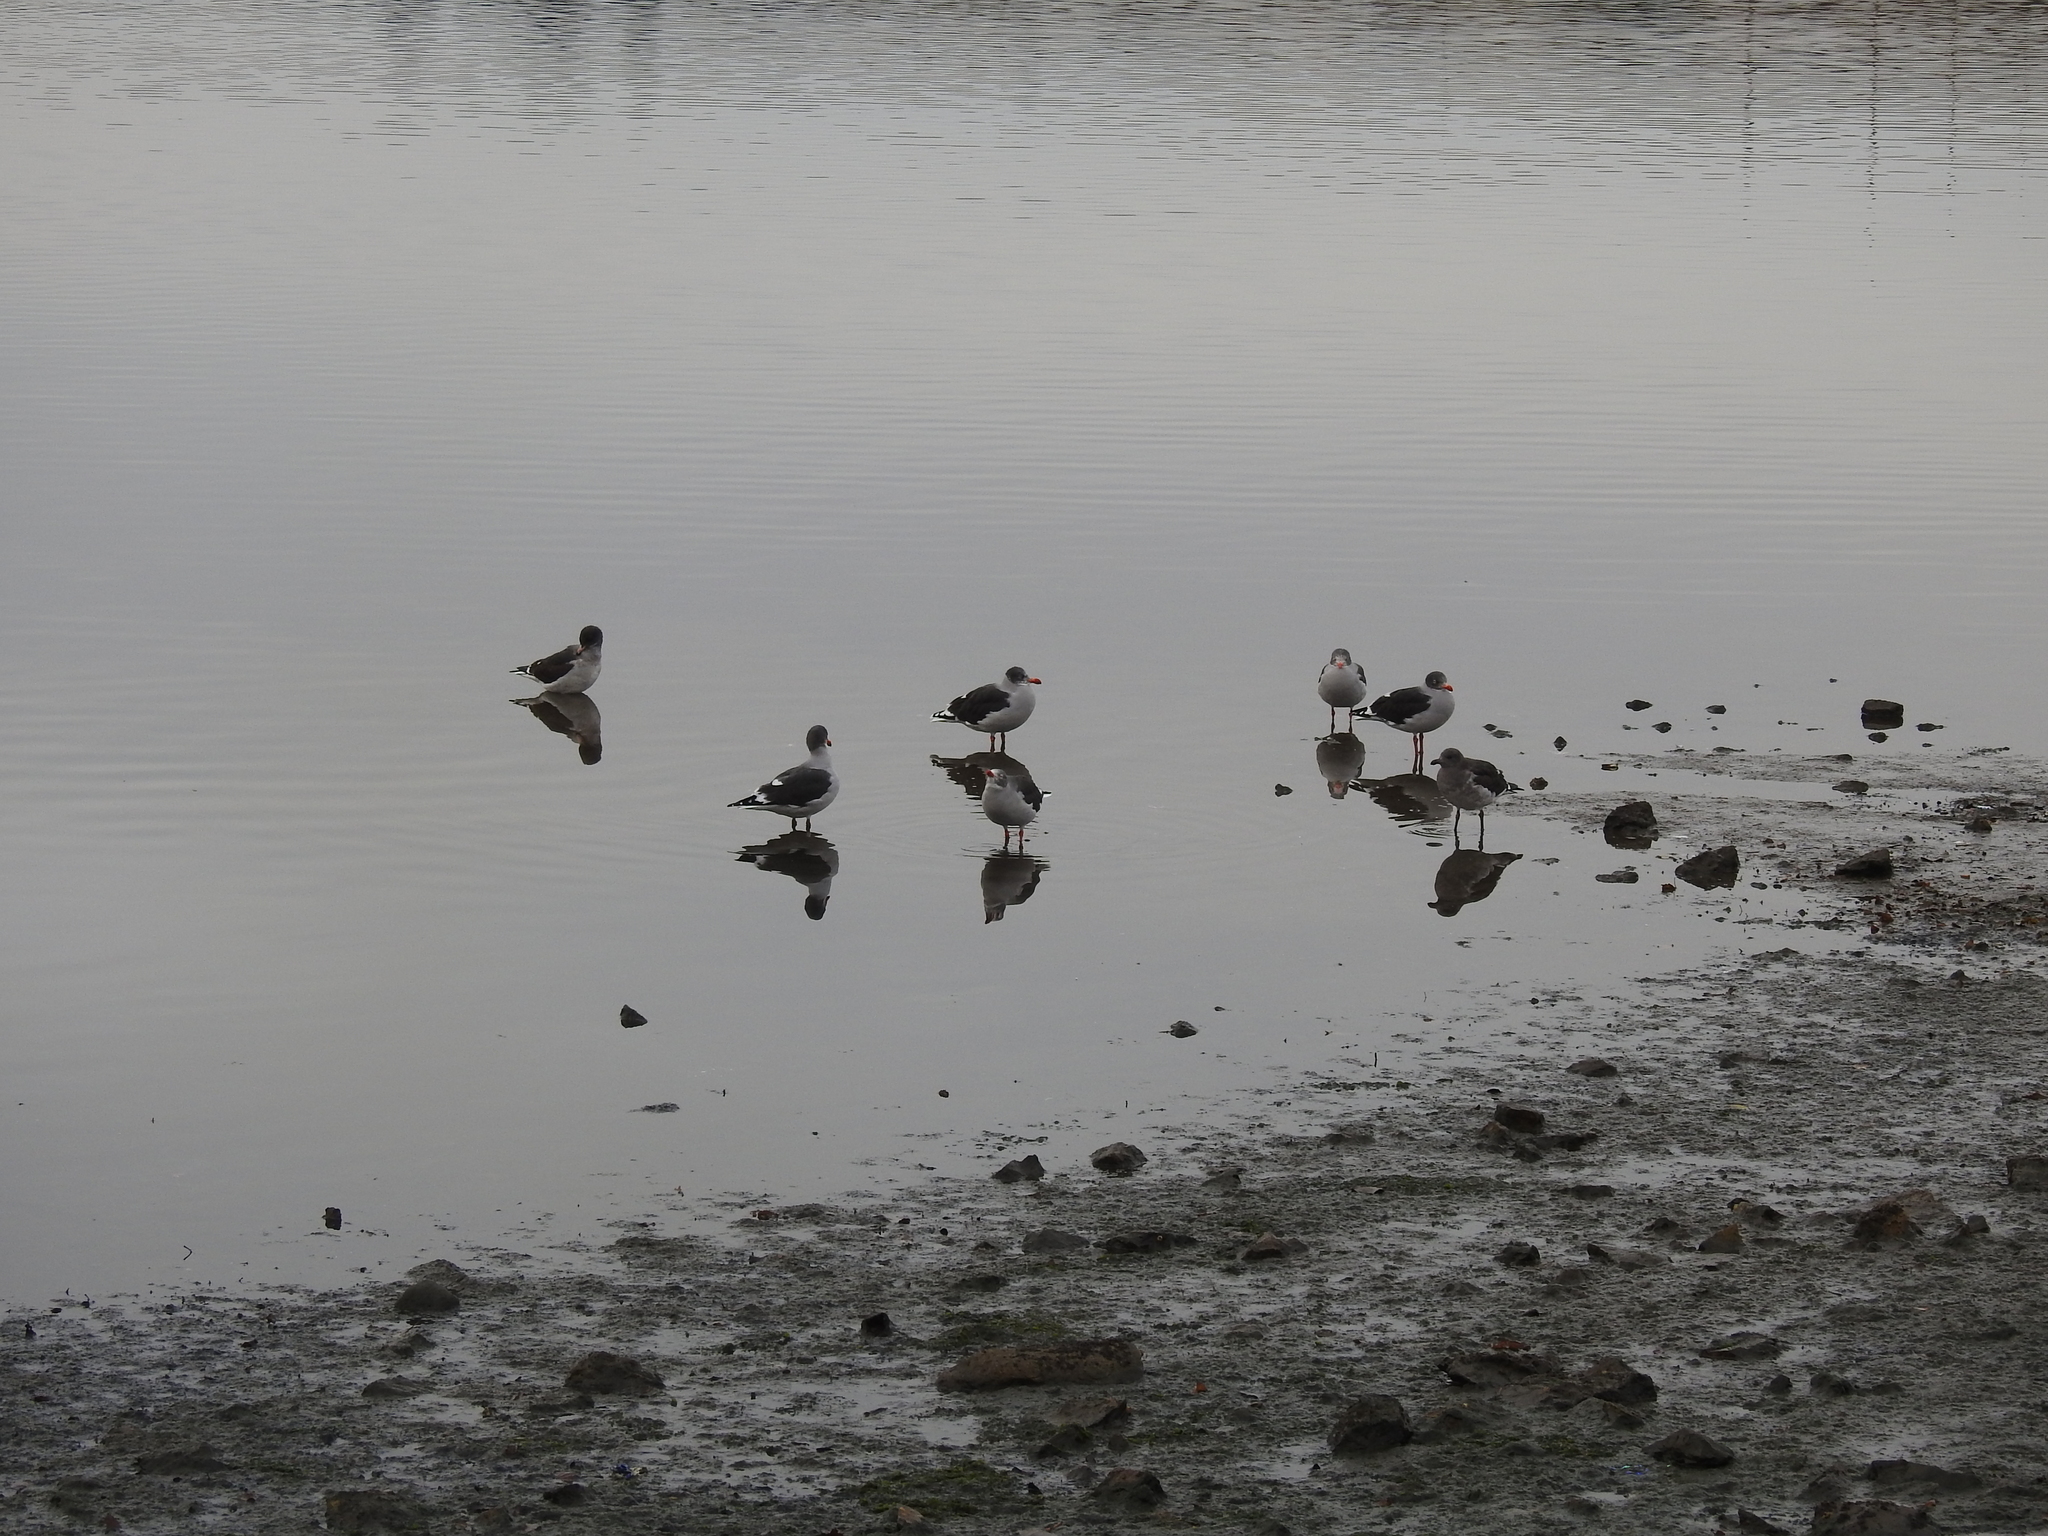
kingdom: Animalia
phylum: Chordata
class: Aves
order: Charadriiformes
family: Laridae
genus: Leucophaeus
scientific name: Leucophaeus scoresbii
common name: Dolphin gull
